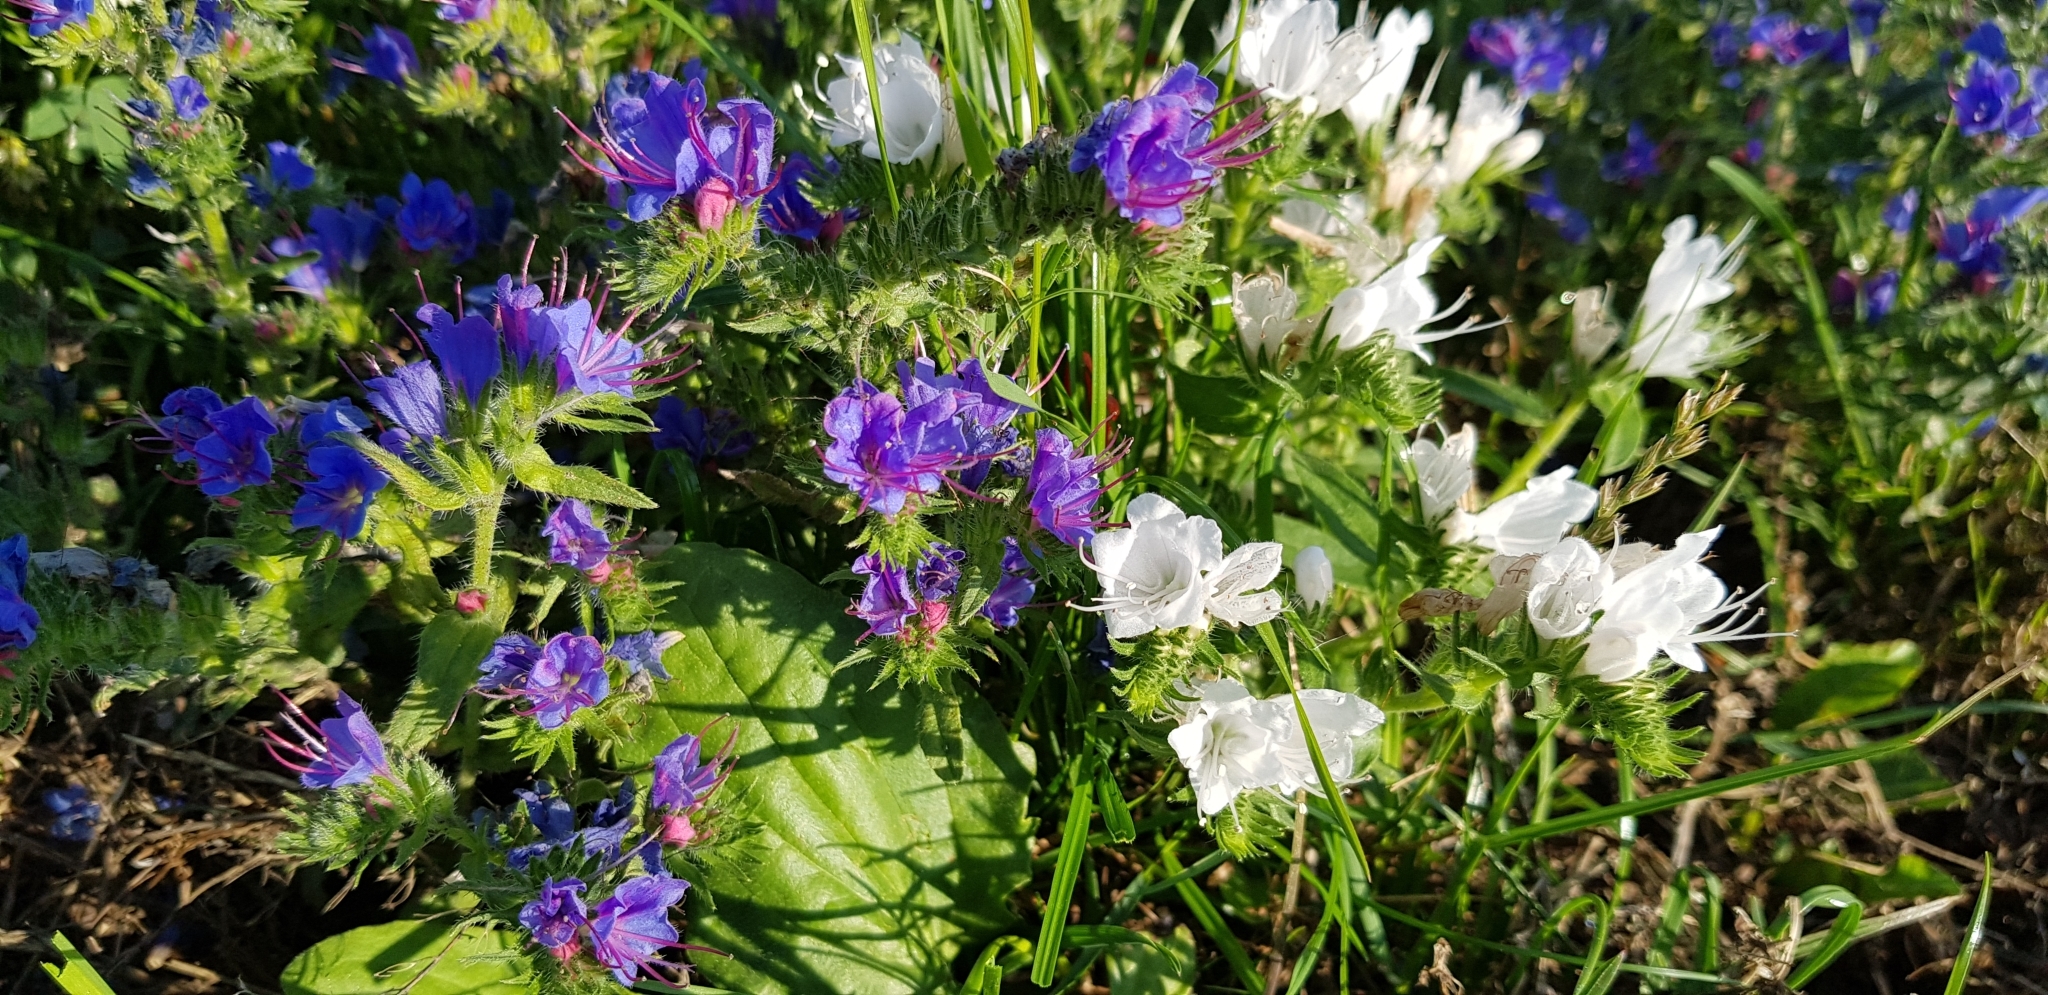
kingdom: Plantae
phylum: Tracheophyta
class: Magnoliopsida
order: Boraginales
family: Boraginaceae
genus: Echium
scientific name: Echium vulgare
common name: Common viper's bugloss
